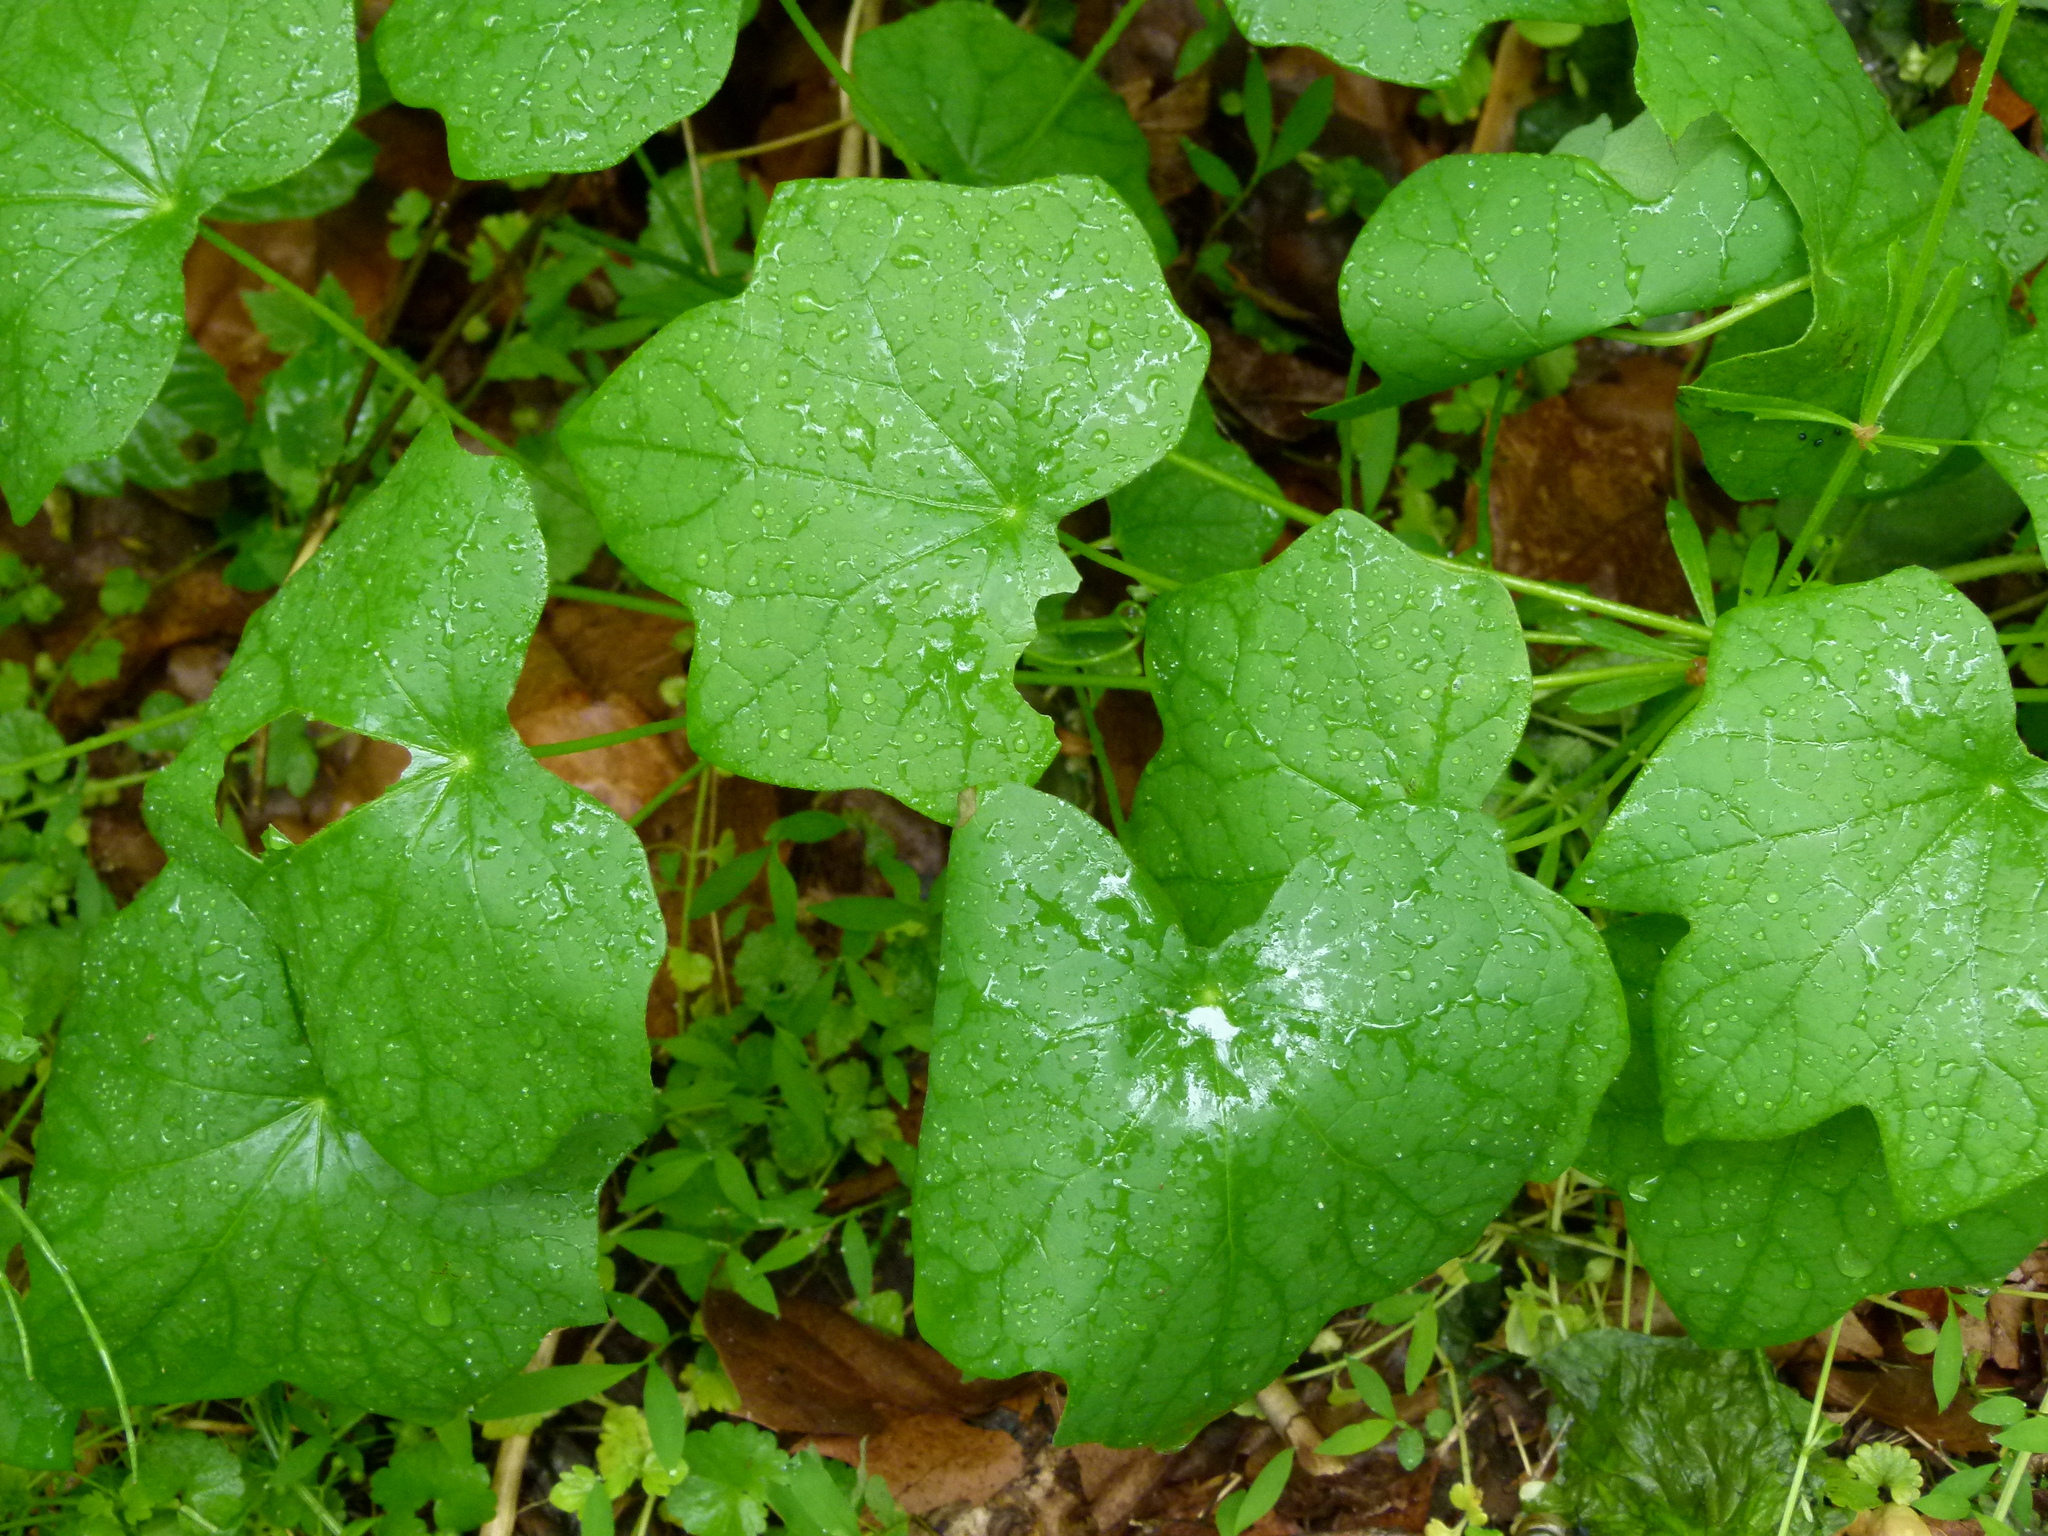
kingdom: Plantae
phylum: Tracheophyta
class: Magnoliopsida
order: Ranunculales
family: Menispermaceae
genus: Menispermum
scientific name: Menispermum canadense
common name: Moonseed
